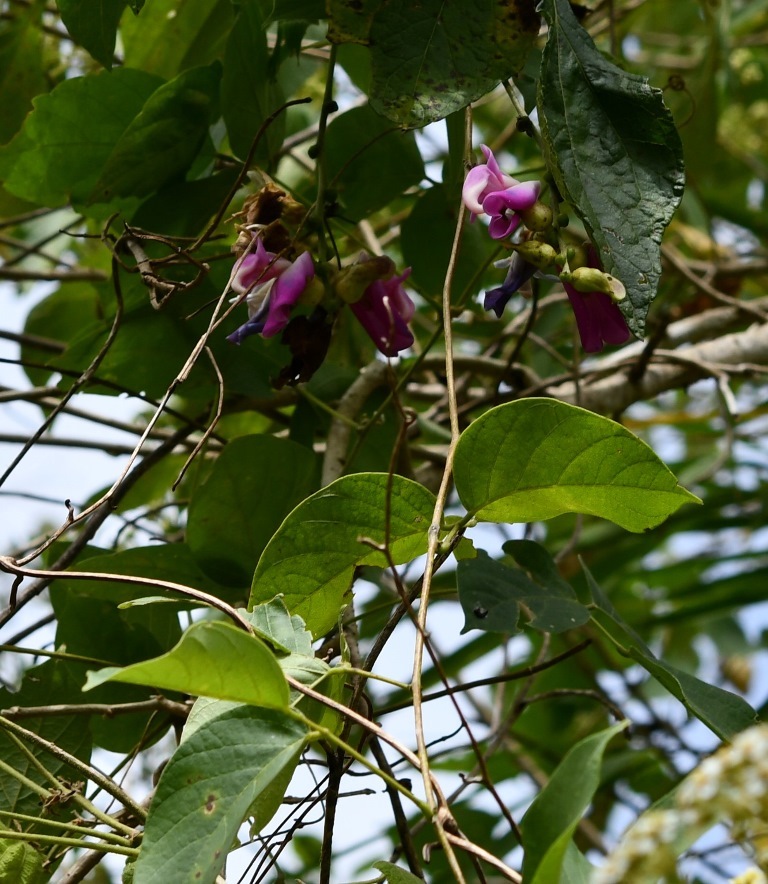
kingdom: Plantae
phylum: Tracheophyta
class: Magnoliopsida
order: Fabales
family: Fabaceae
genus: Canavalia
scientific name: Canavalia oxyphylla
